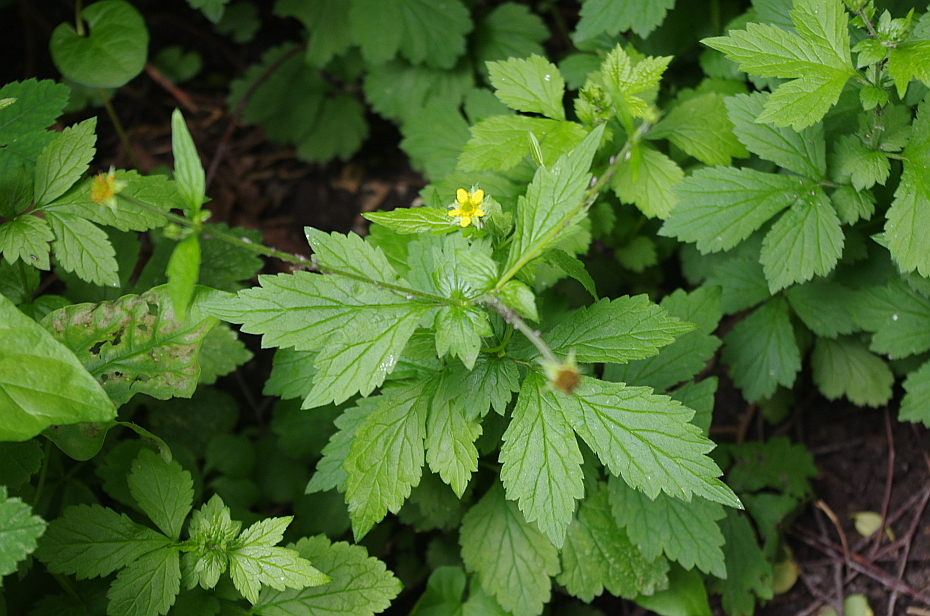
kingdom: Plantae
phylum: Tracheophyta
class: Magnoliopsida
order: Rosales
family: Rosaceae
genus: Geum
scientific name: Geum urbanum
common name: Wood avens
